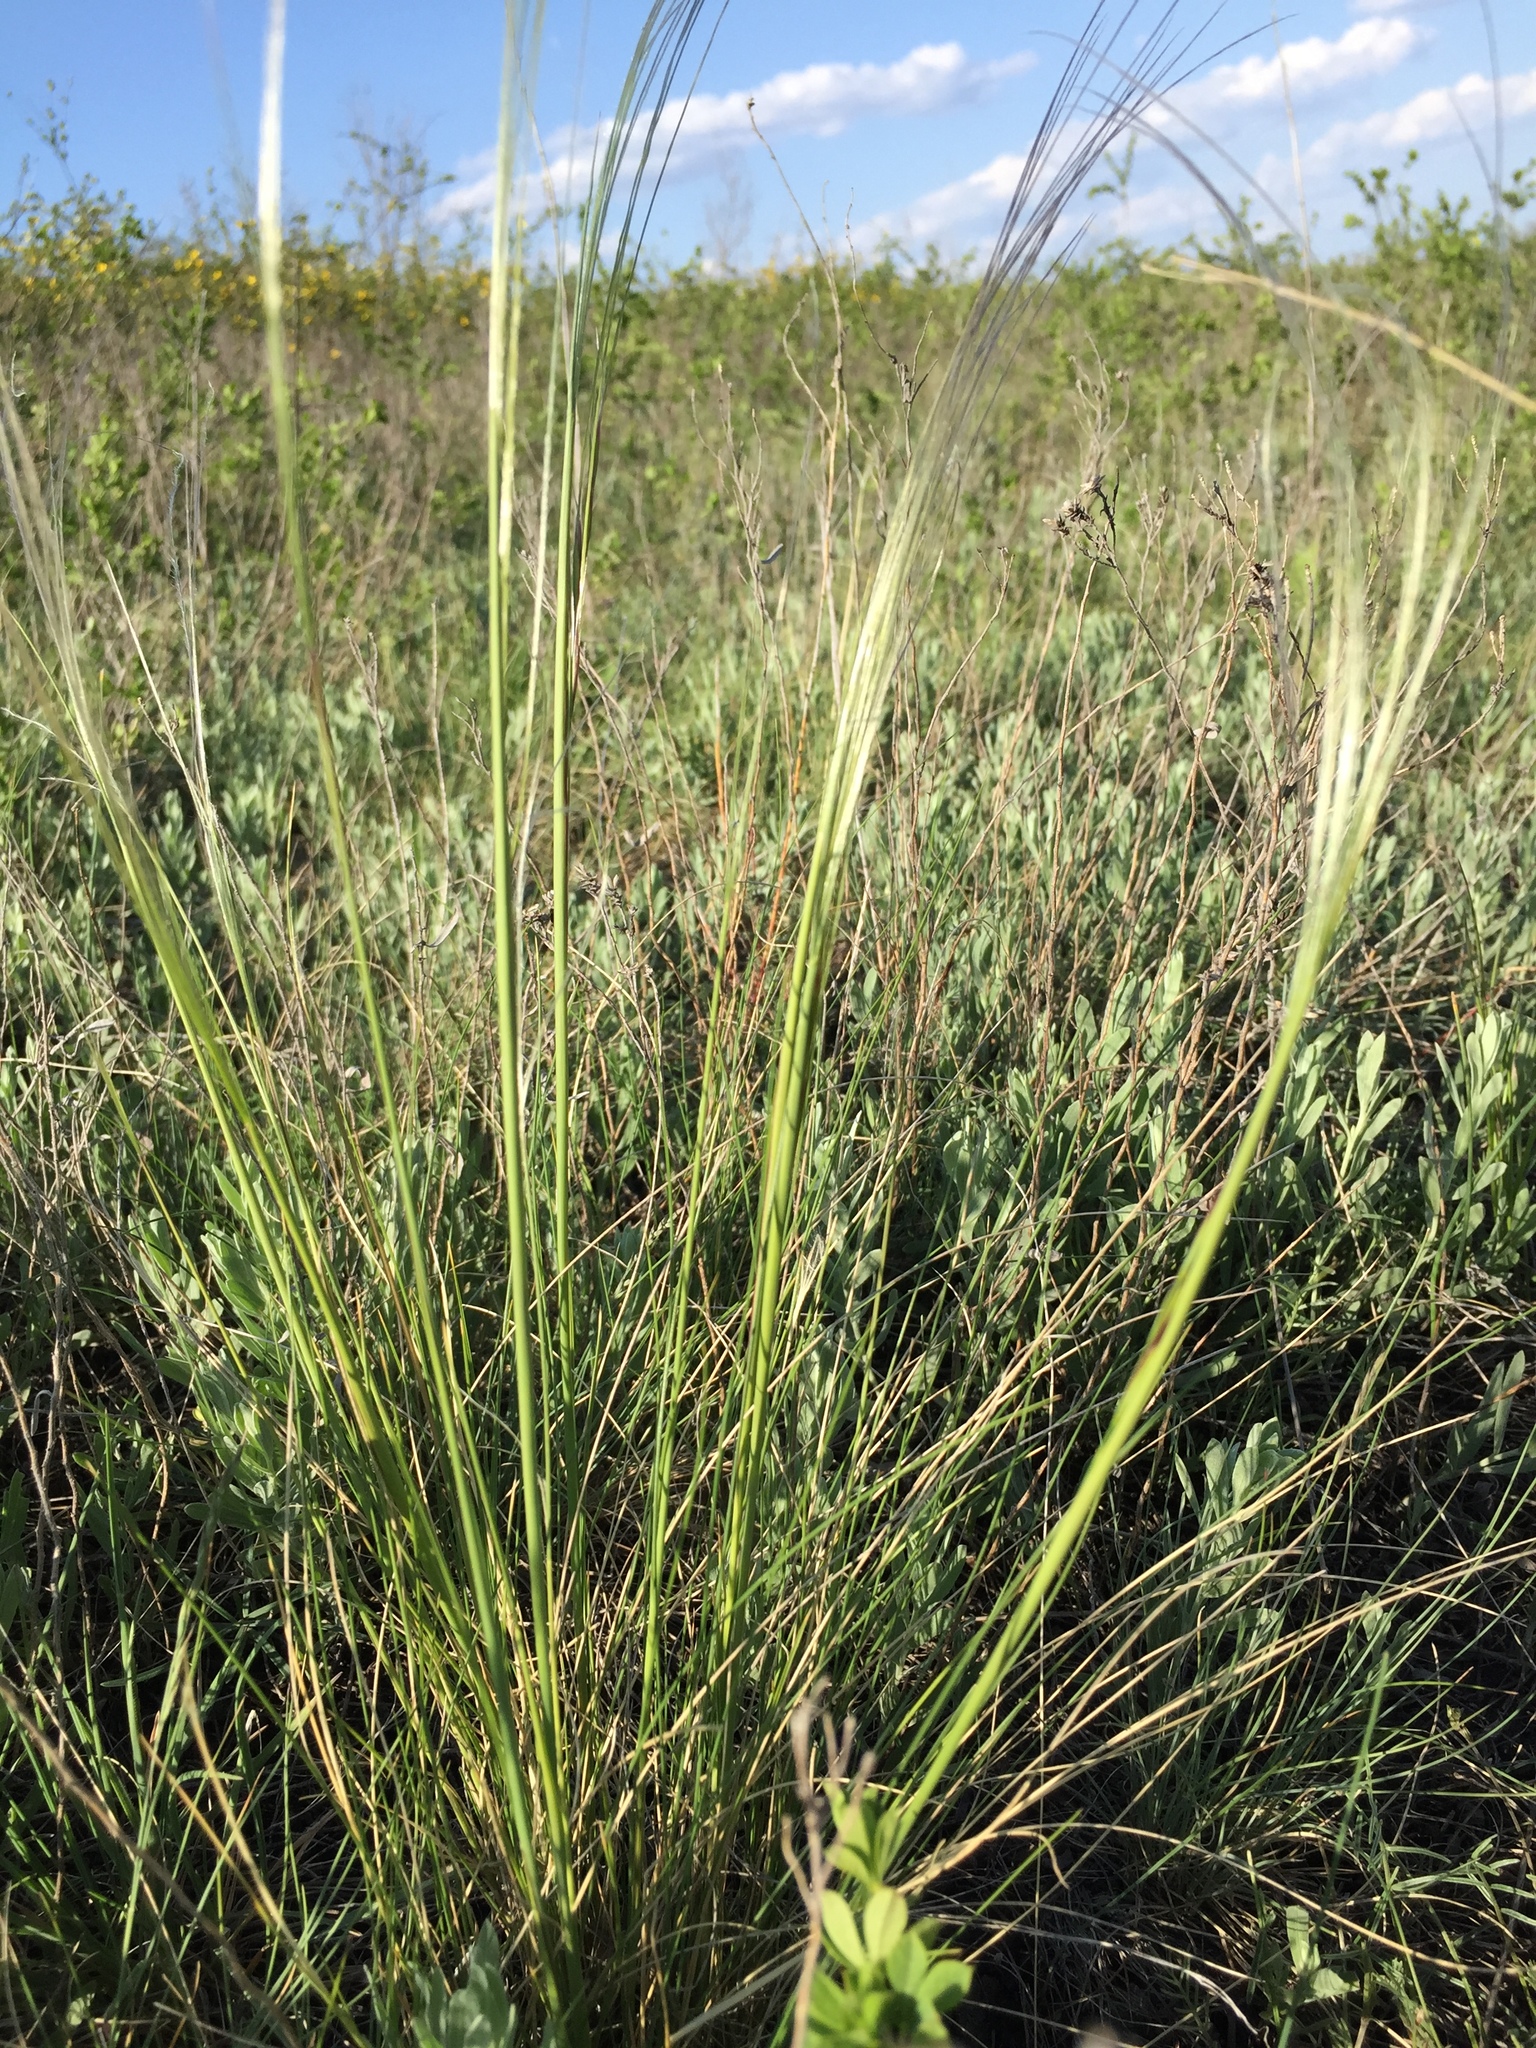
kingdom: Plantae
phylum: Tracheophyta
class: Liliopsida
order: Poales
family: Poaceae
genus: Stipa
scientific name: Stipa pennata
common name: European feather grass
